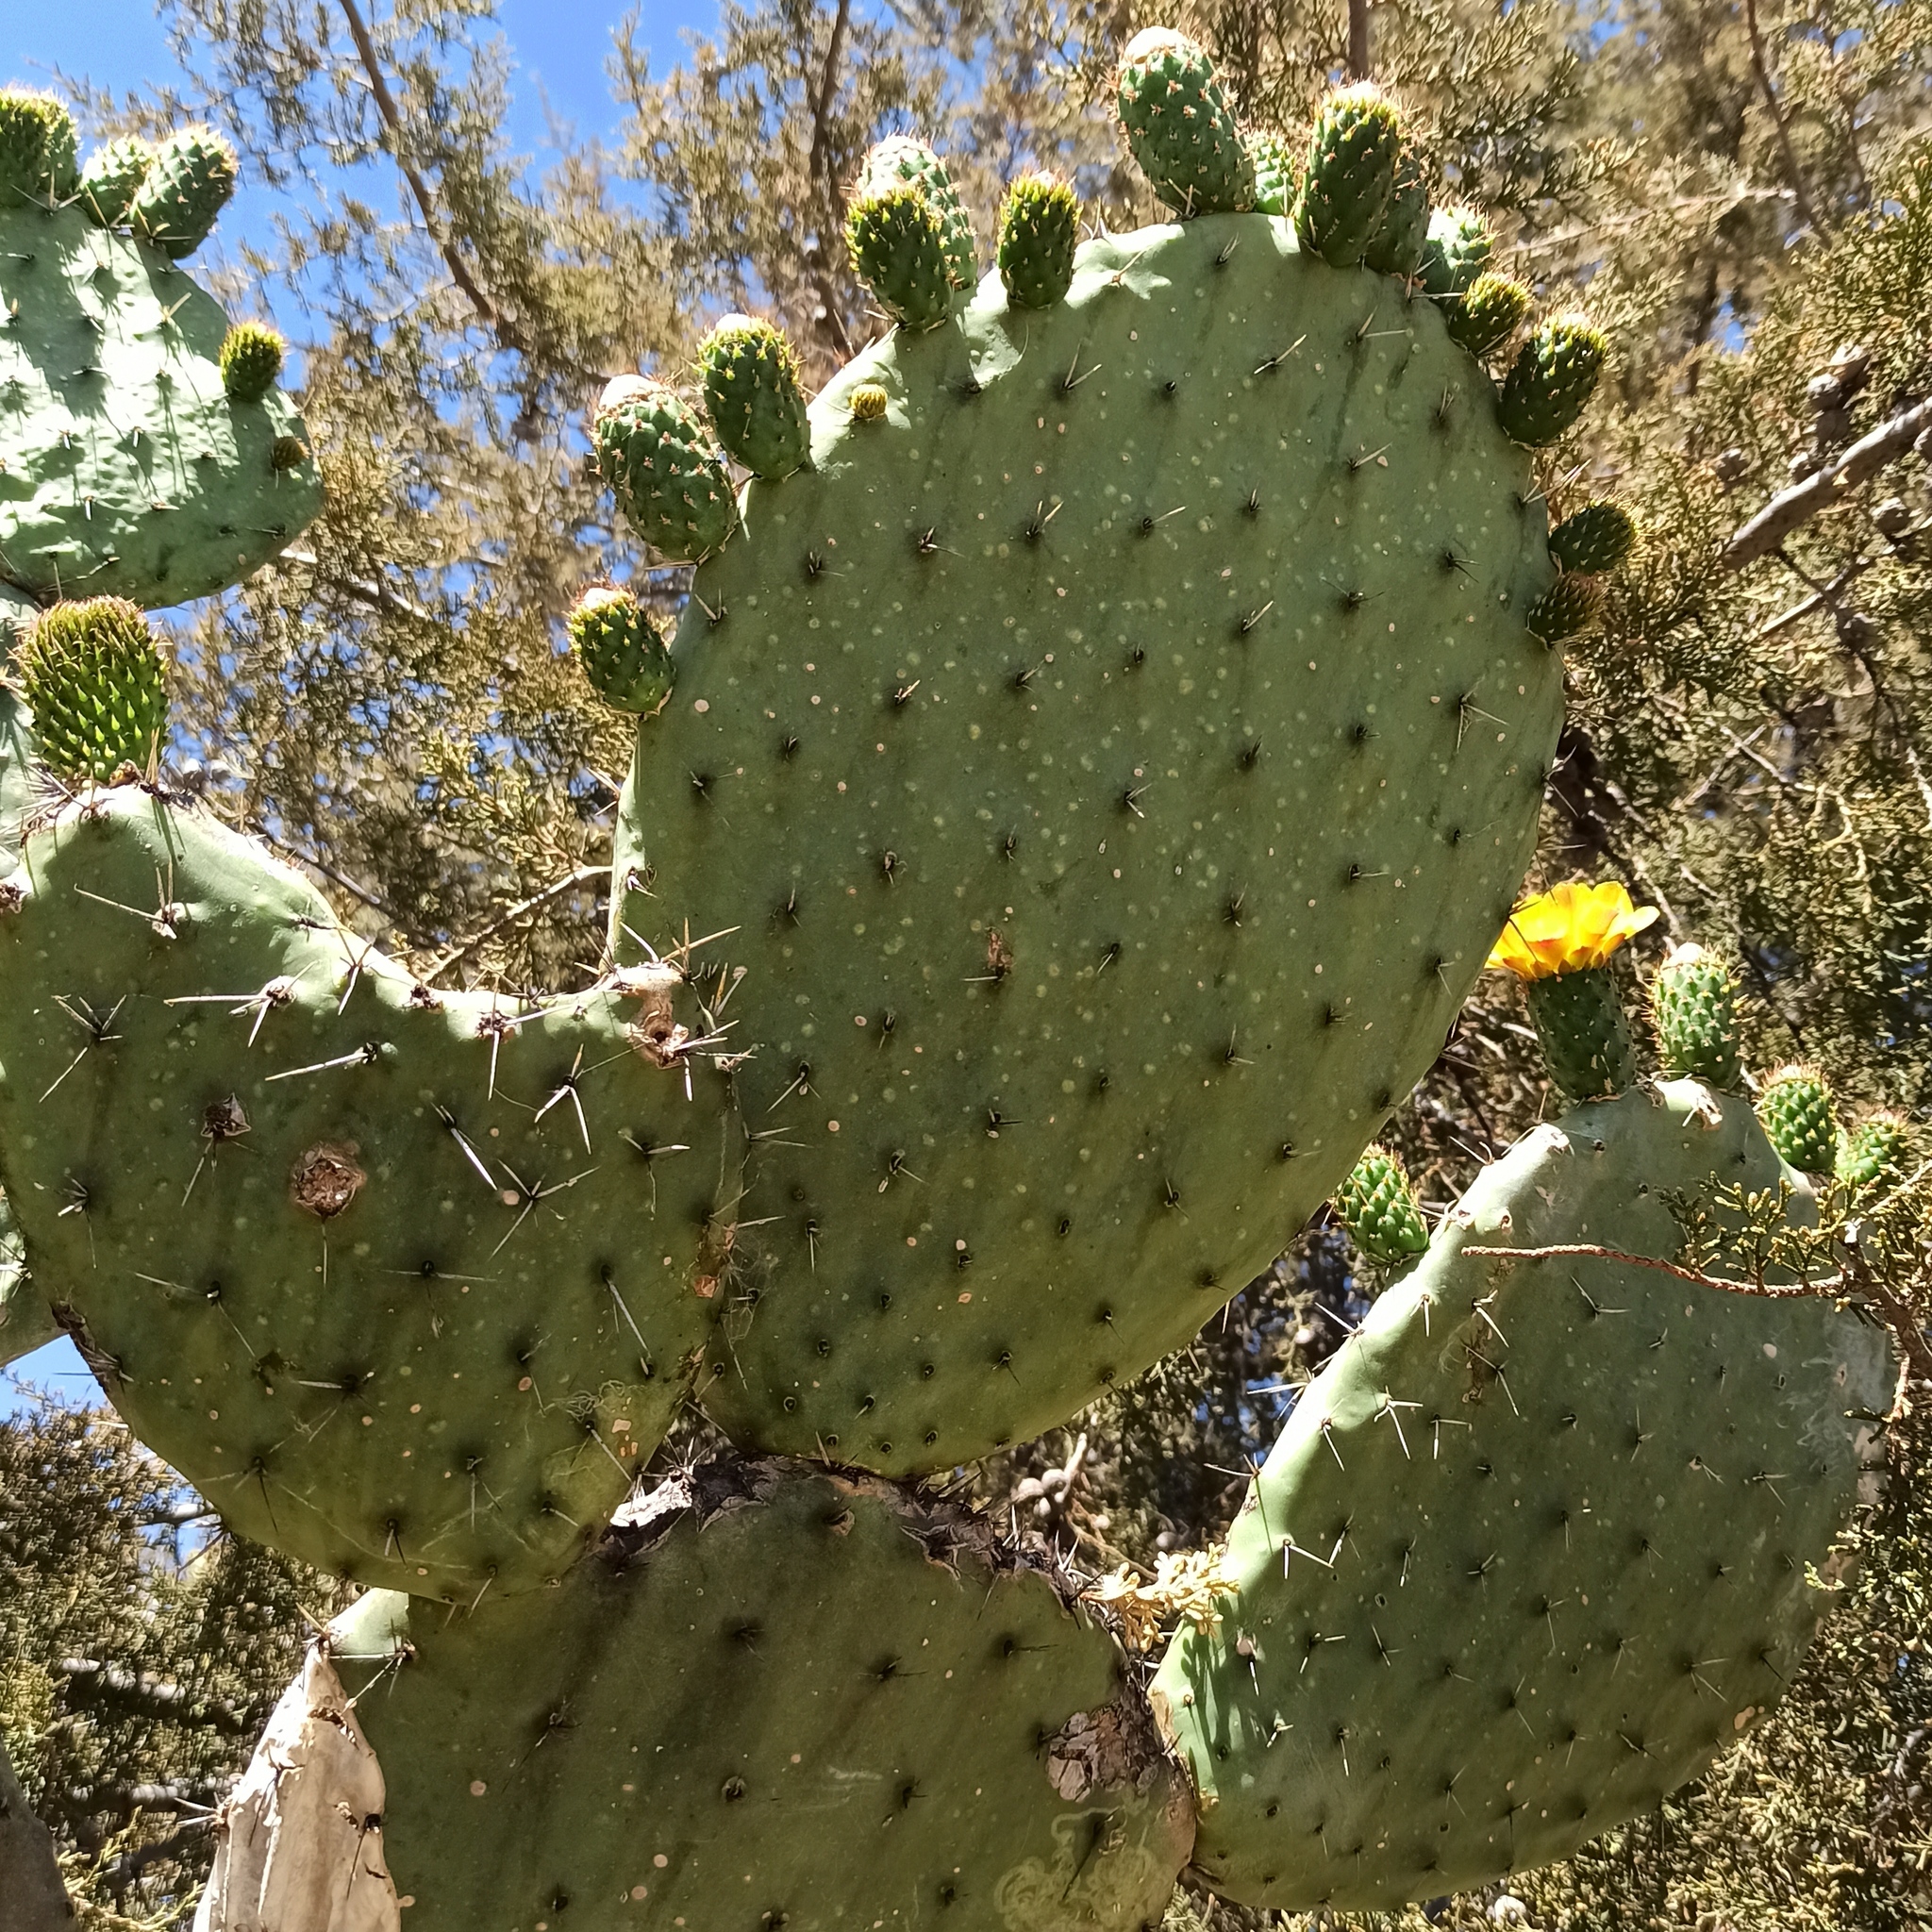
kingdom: Plantae
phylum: Tracheophyta
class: Magnoliopsida
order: Caryophyllales
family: Cactaceae
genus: Opuntia
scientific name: Opuntia streptacantha
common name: Gracemere-pear
